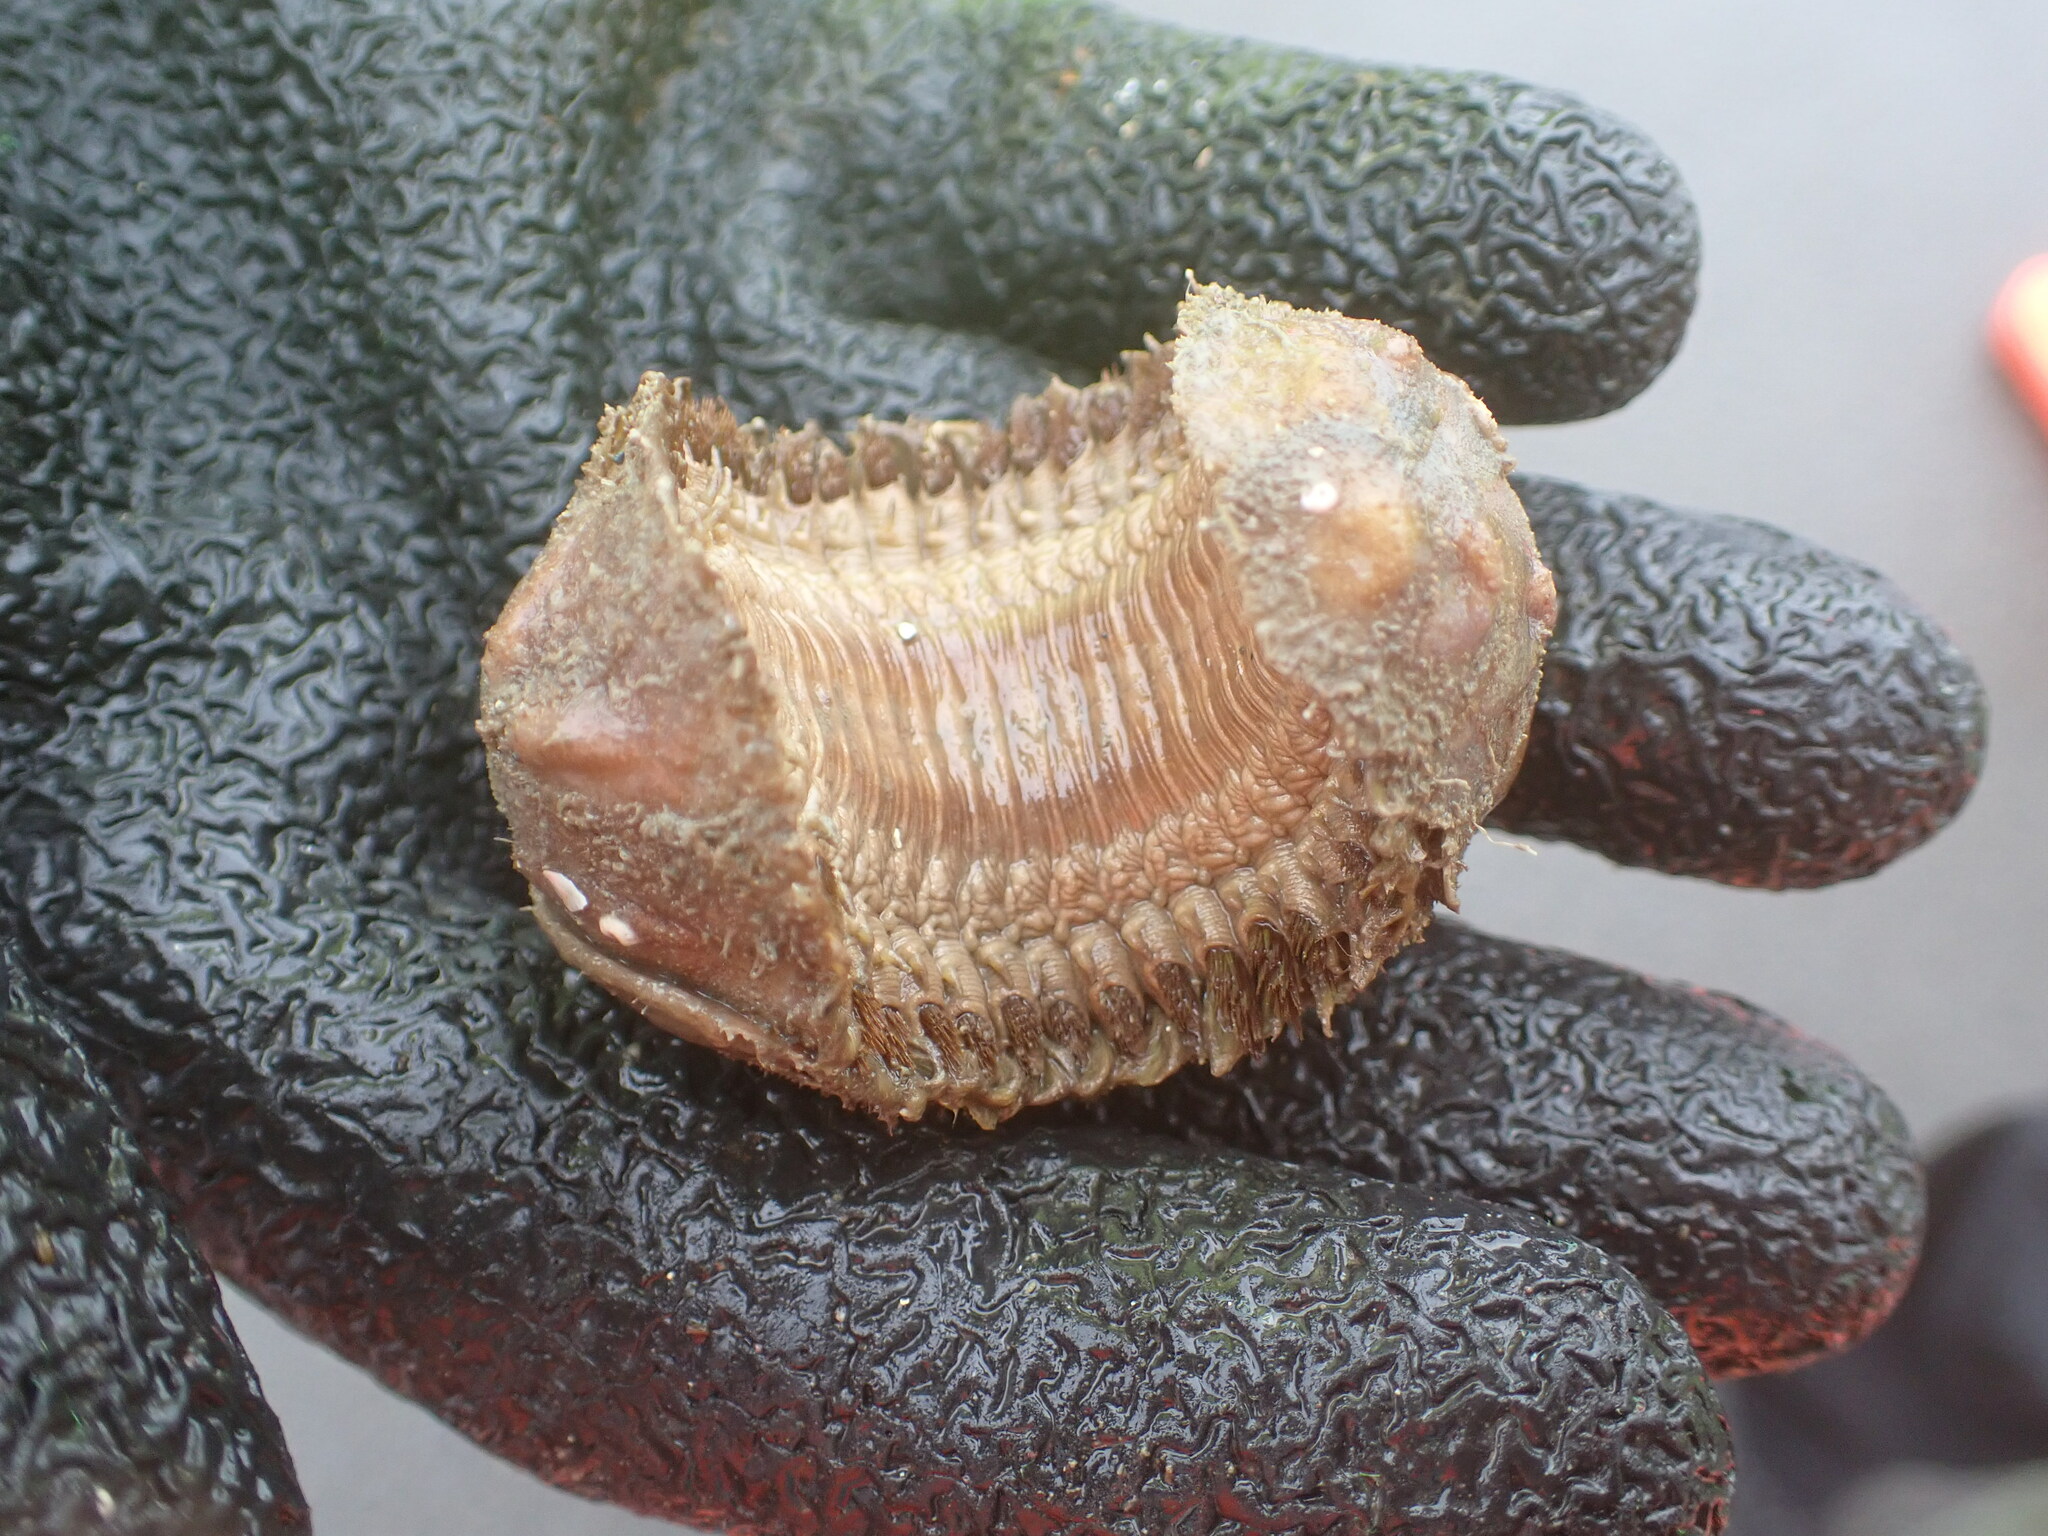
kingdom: Animalia
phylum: Annelida
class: Polychaeta
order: Phyllodocida
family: Polynoidae
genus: Euphione
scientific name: Euphione squamosa
